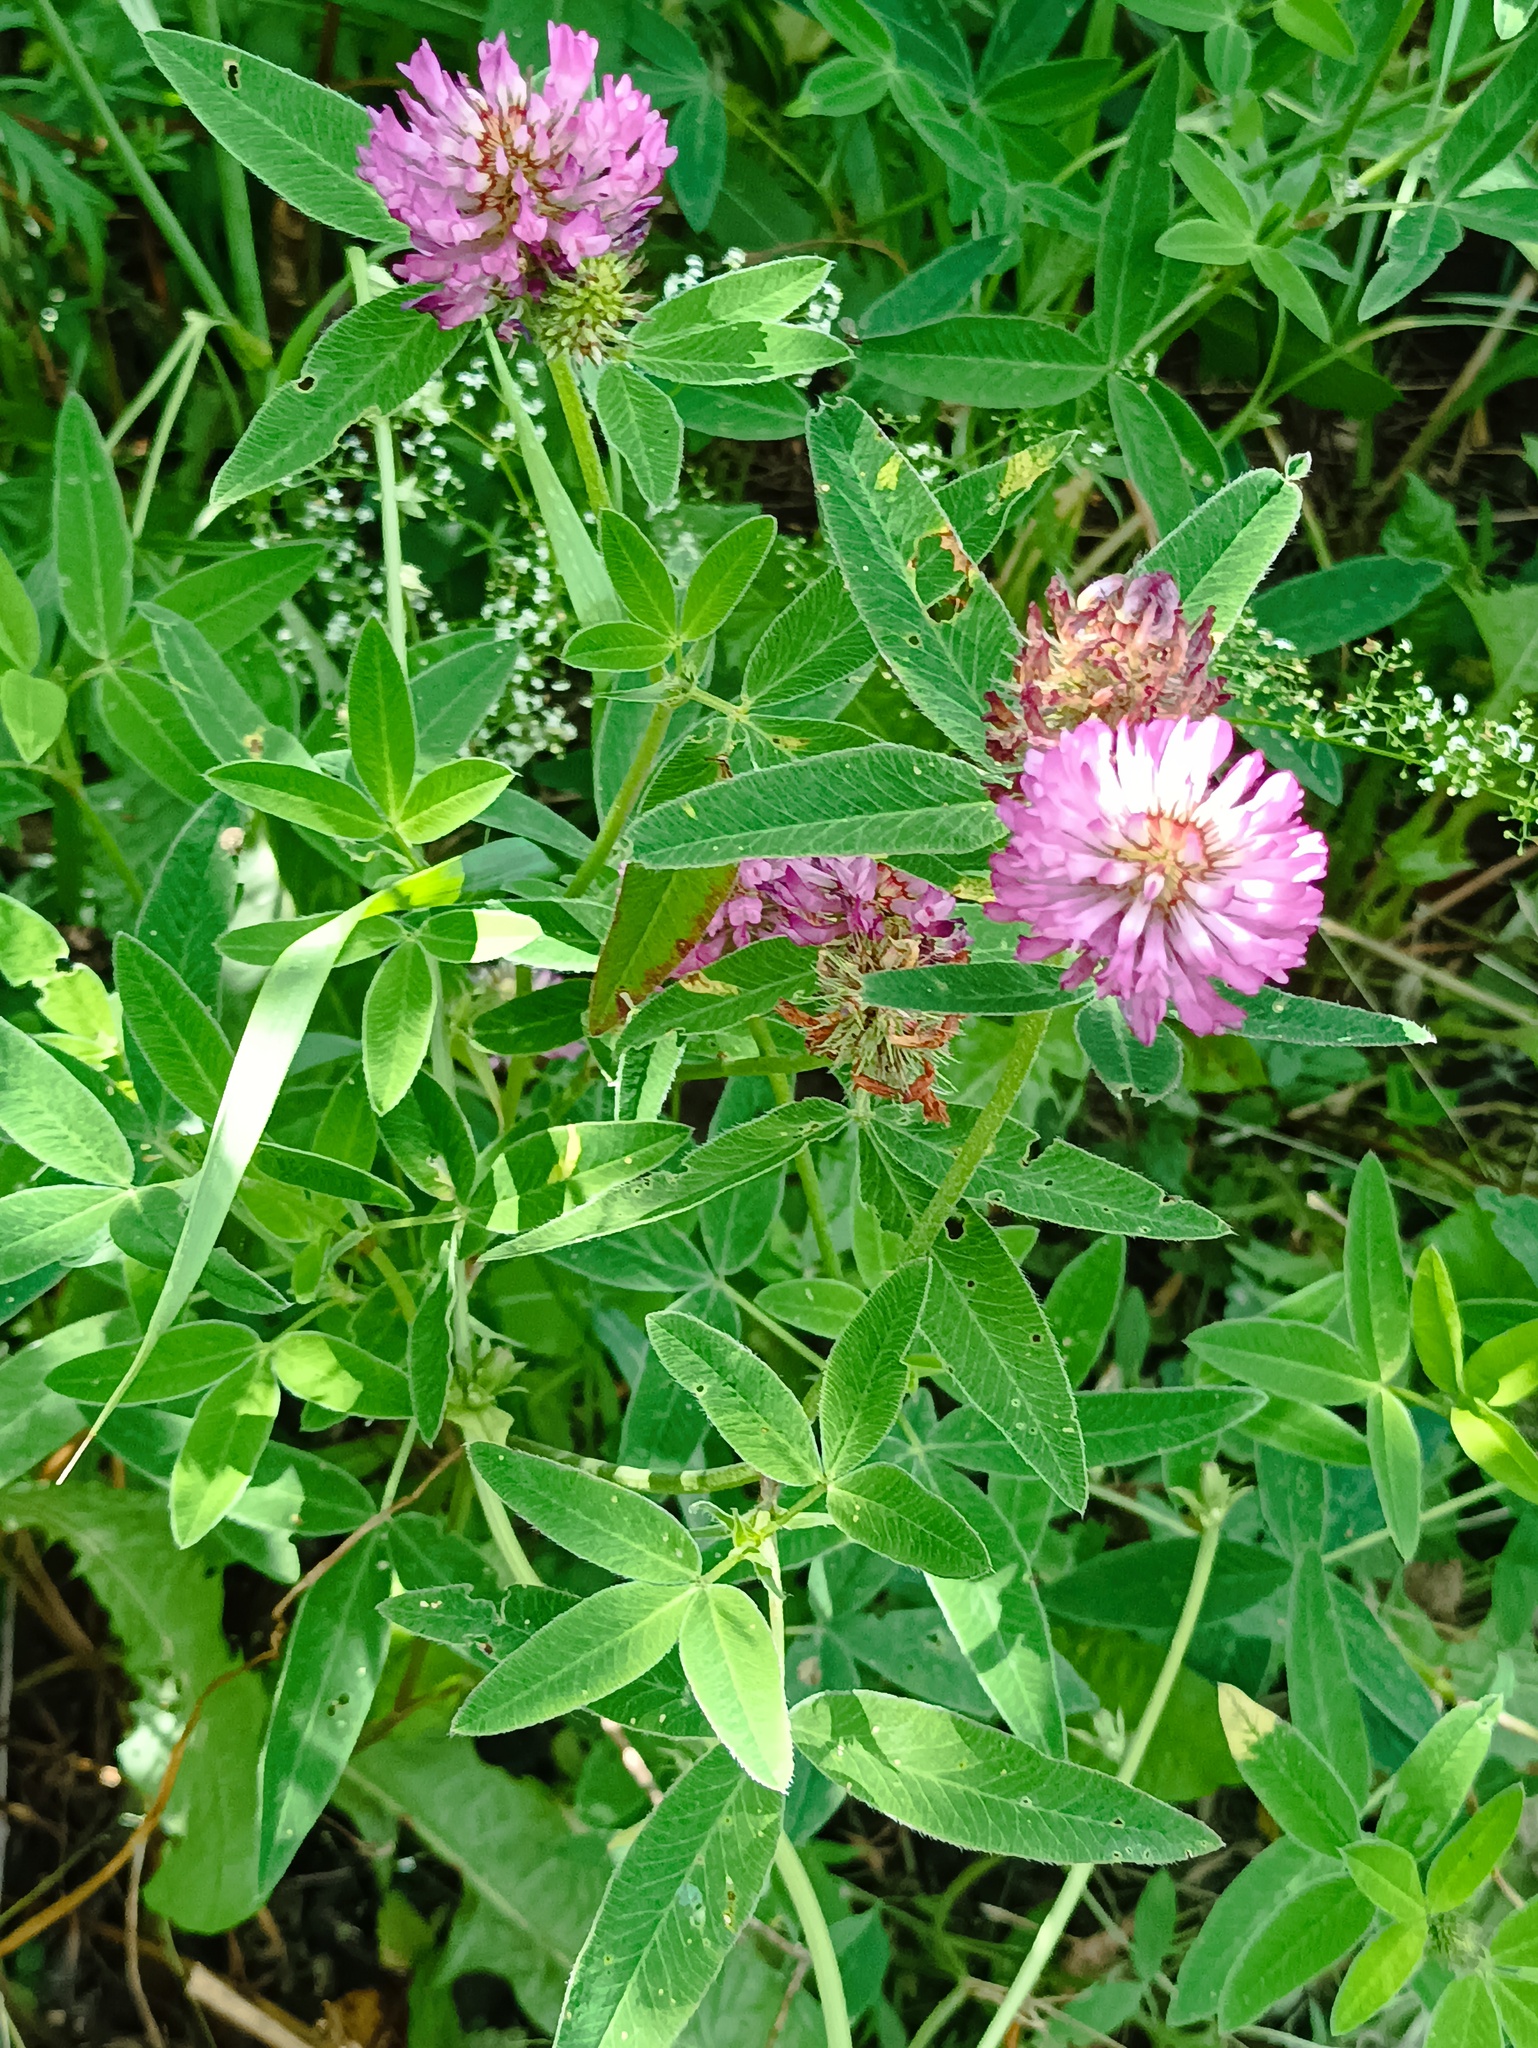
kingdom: Plantae
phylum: Tracheophyta
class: Magnoliopsida
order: Fabales
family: Fabaceae
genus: Trifolium
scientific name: Trifolium medium
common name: Zigzag clover
